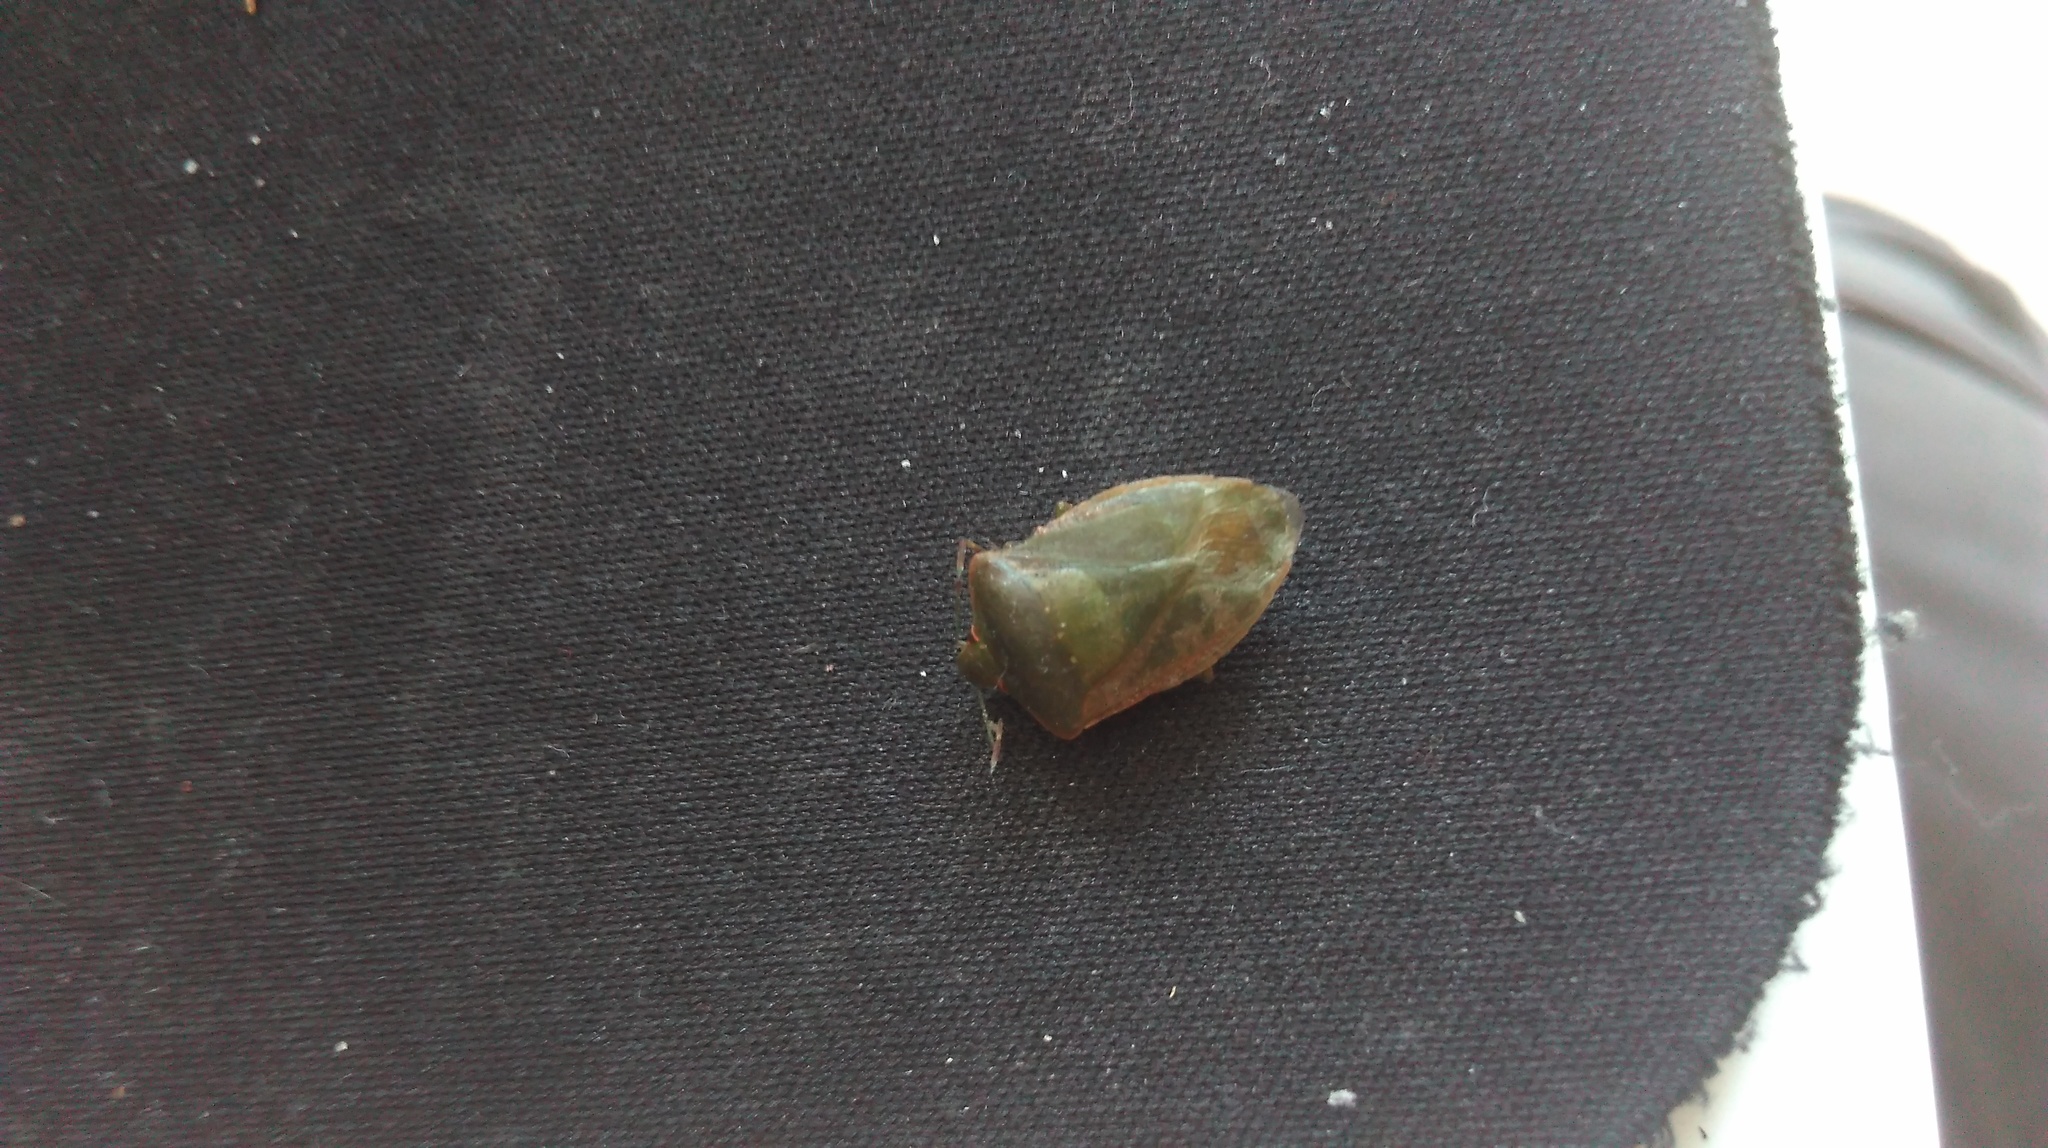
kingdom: Animalia
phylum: Arthropoda
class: Insecta
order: Hemiptera
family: Pentatomidae
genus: Nezara
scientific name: Nezara viridula
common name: Southern green stink bug
